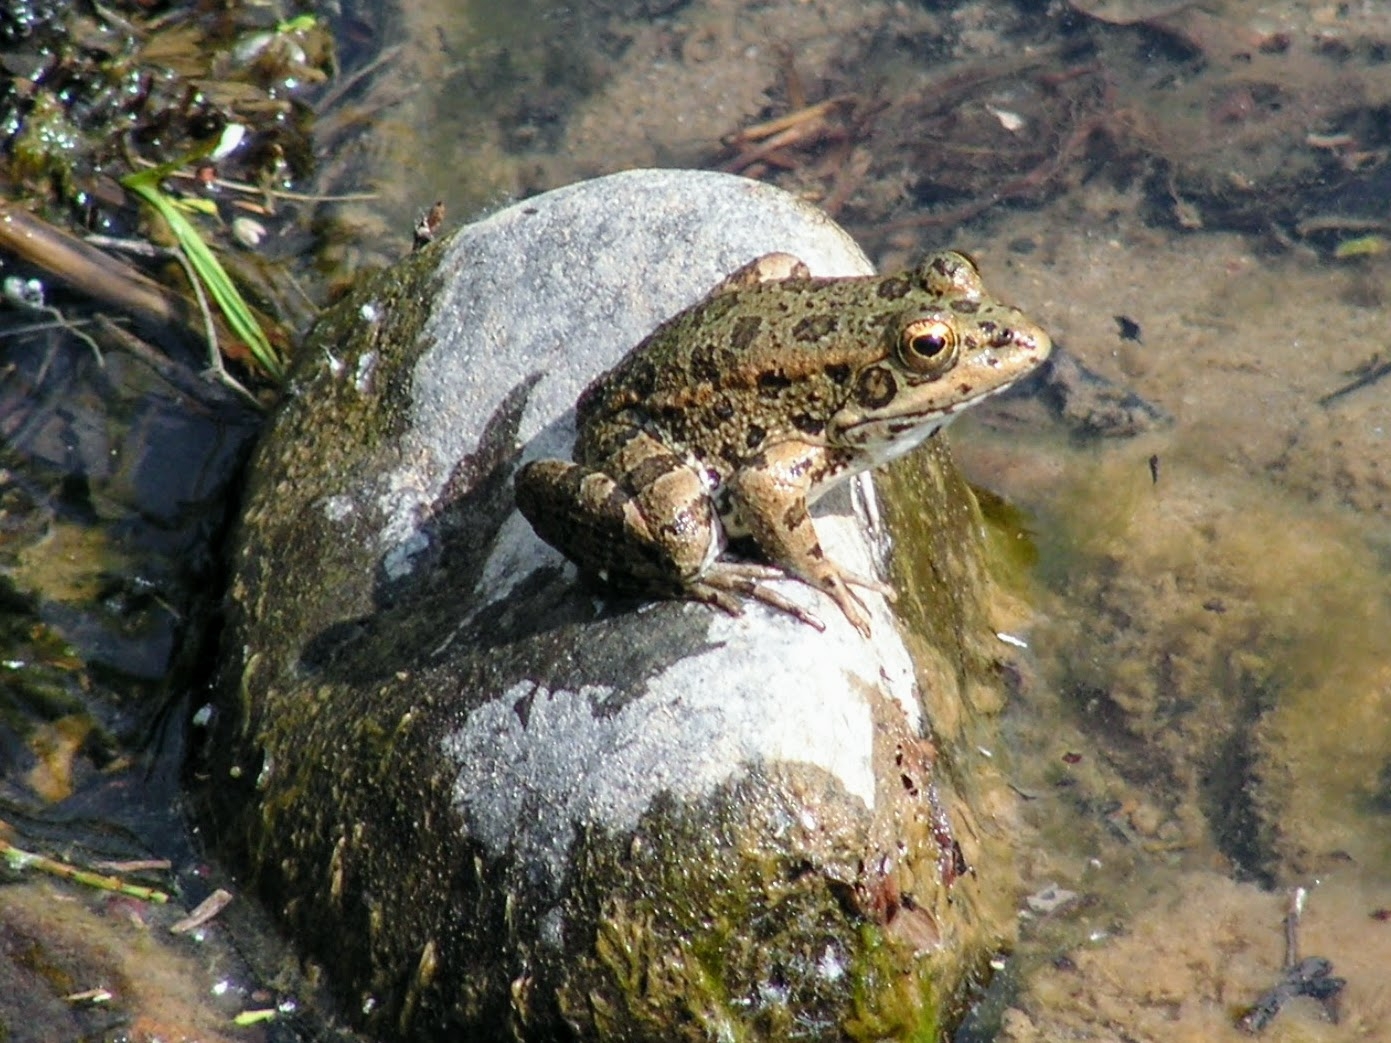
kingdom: Animalia
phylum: Chordata
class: Amphibia
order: Anura
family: Ranidae
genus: Pelophylax
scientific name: Pelophylax perezi
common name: Perez's frog
